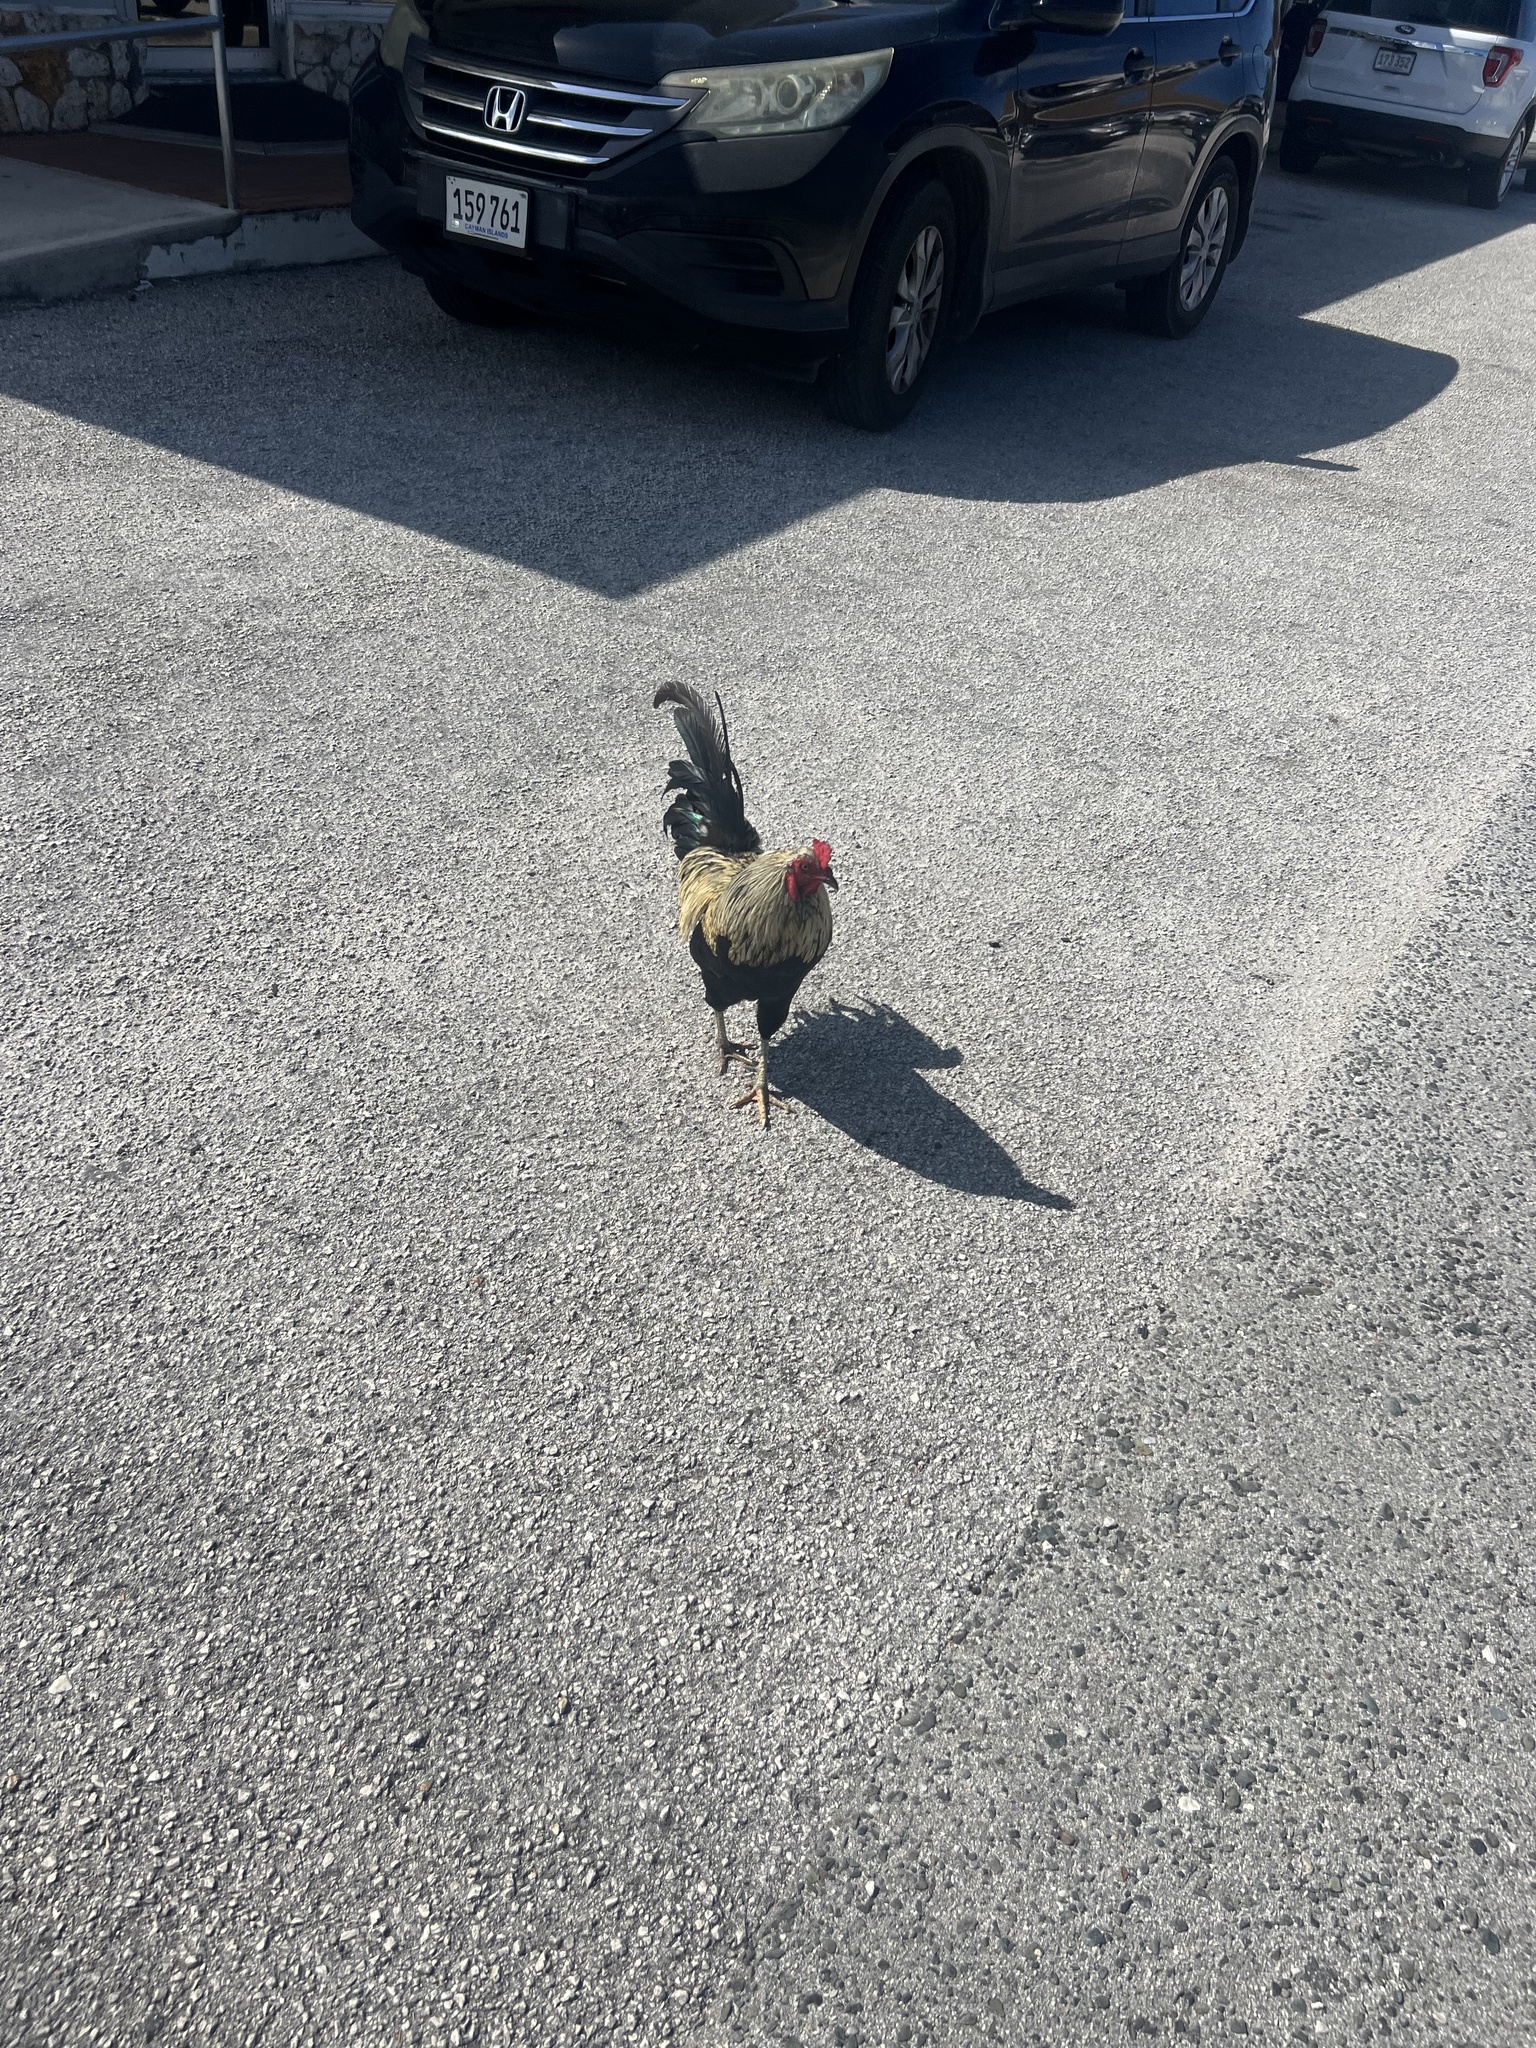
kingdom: Animalia
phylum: Chordata
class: Aves
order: Galliformes
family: Phasianidae
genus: Gallus
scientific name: Gallus gallus
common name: Red junglefowl
